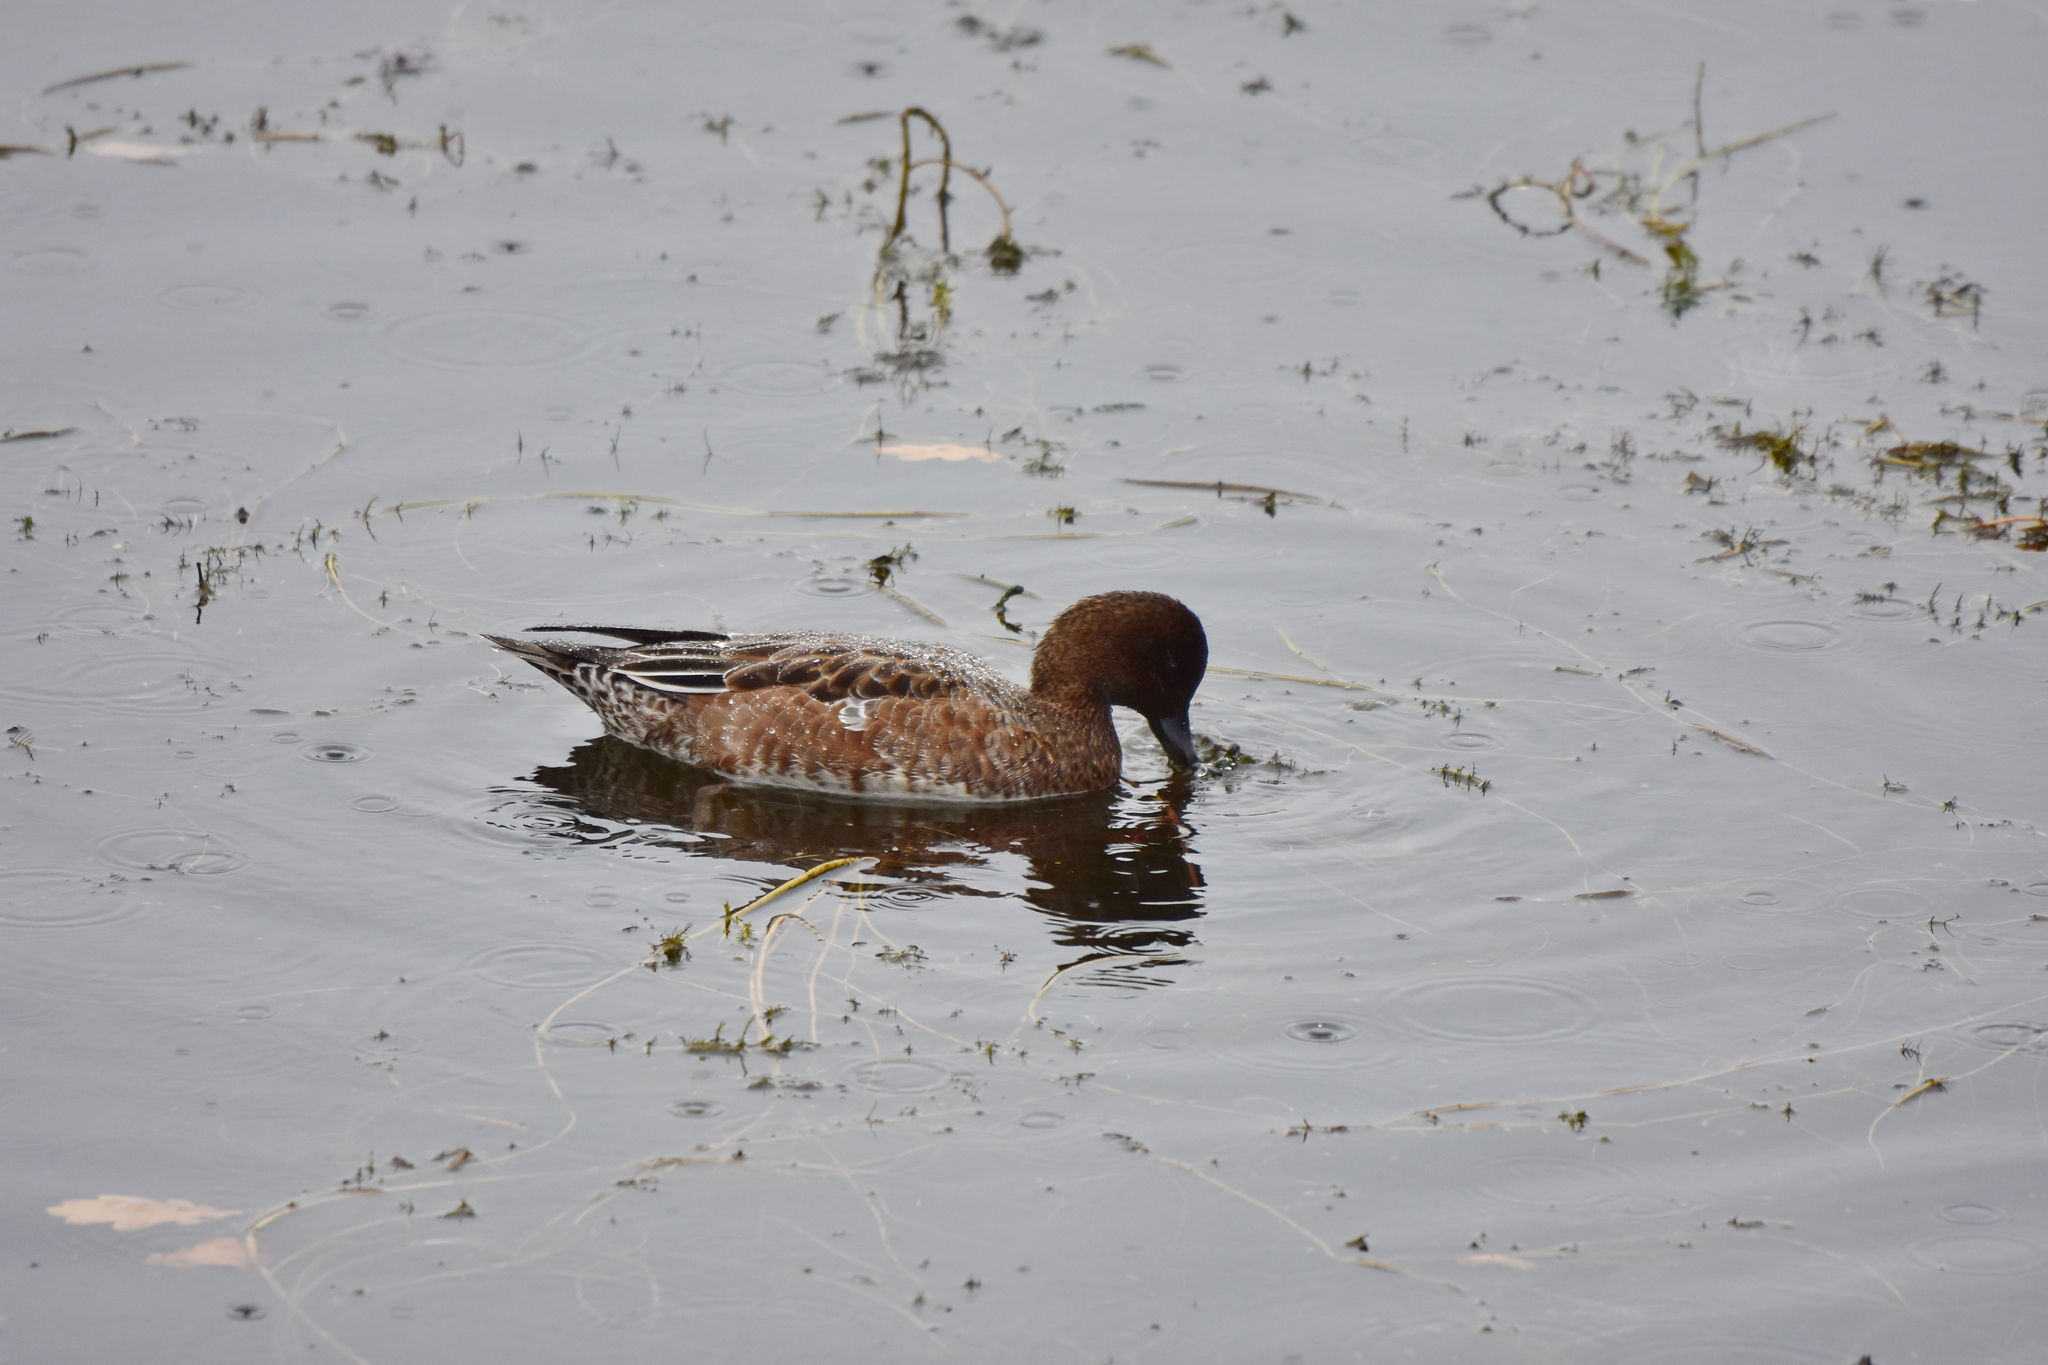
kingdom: Animalia
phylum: Chordata
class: Aves
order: Anseriformes
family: Anatidae
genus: Mareca
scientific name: Mareca penelope
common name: Eurasian wigeon
